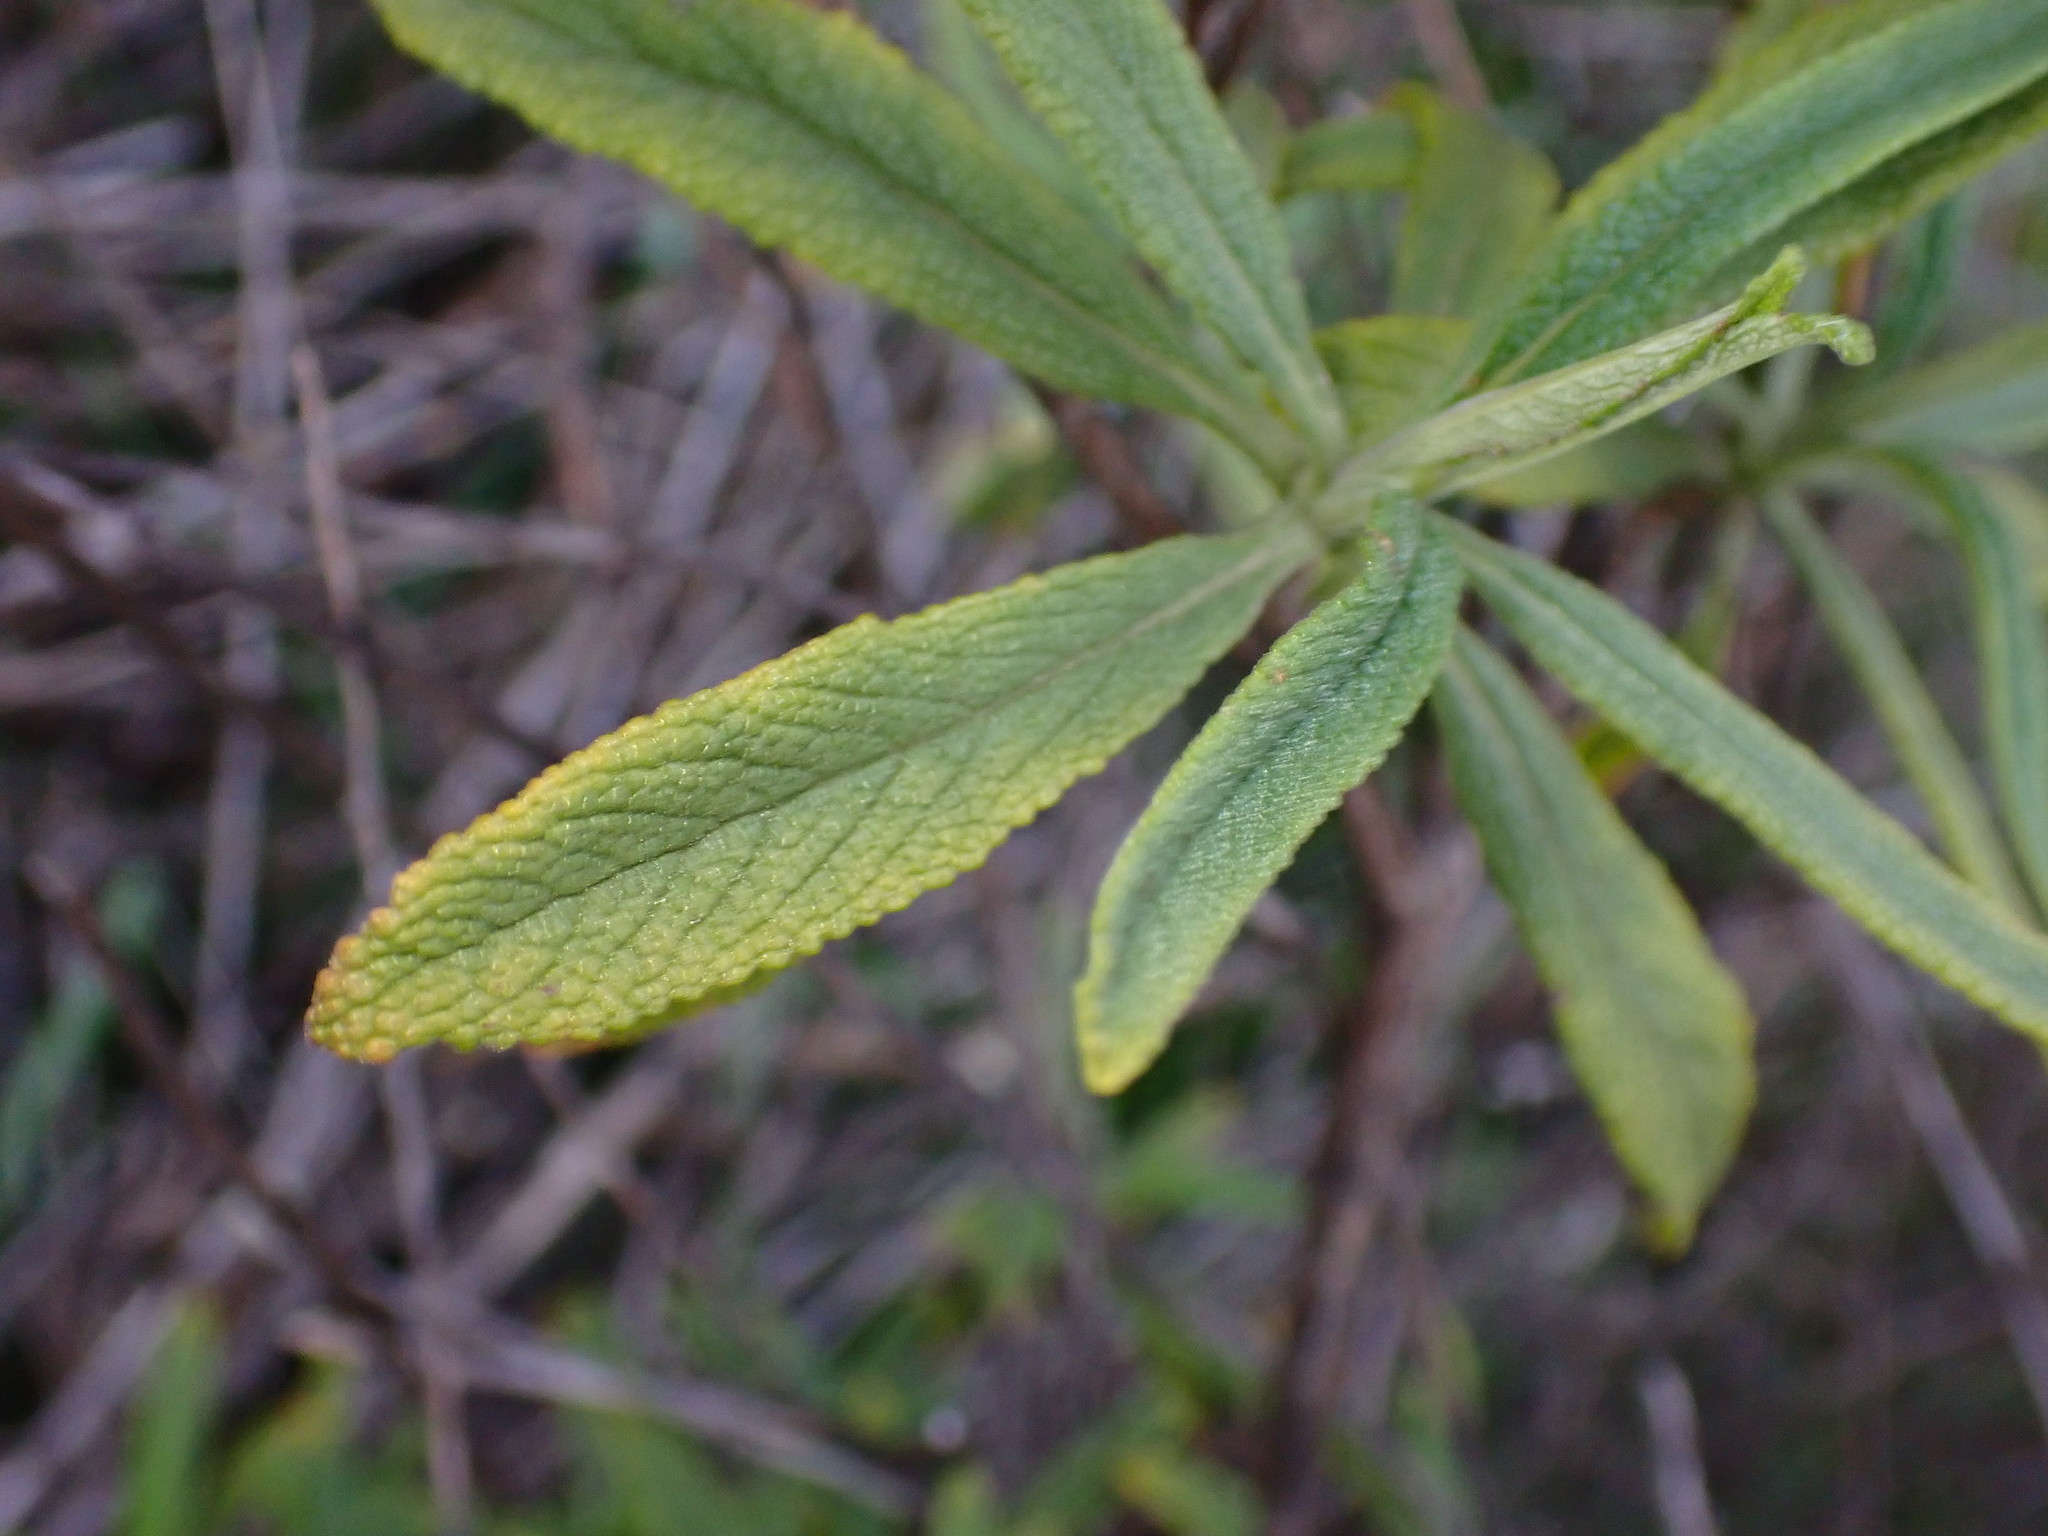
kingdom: Plantae
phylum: Tracheophyta
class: Magnoliopsida
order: Lamiales
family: Lamiaceae
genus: Salvia
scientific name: Salvia mellifera
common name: Black sage
